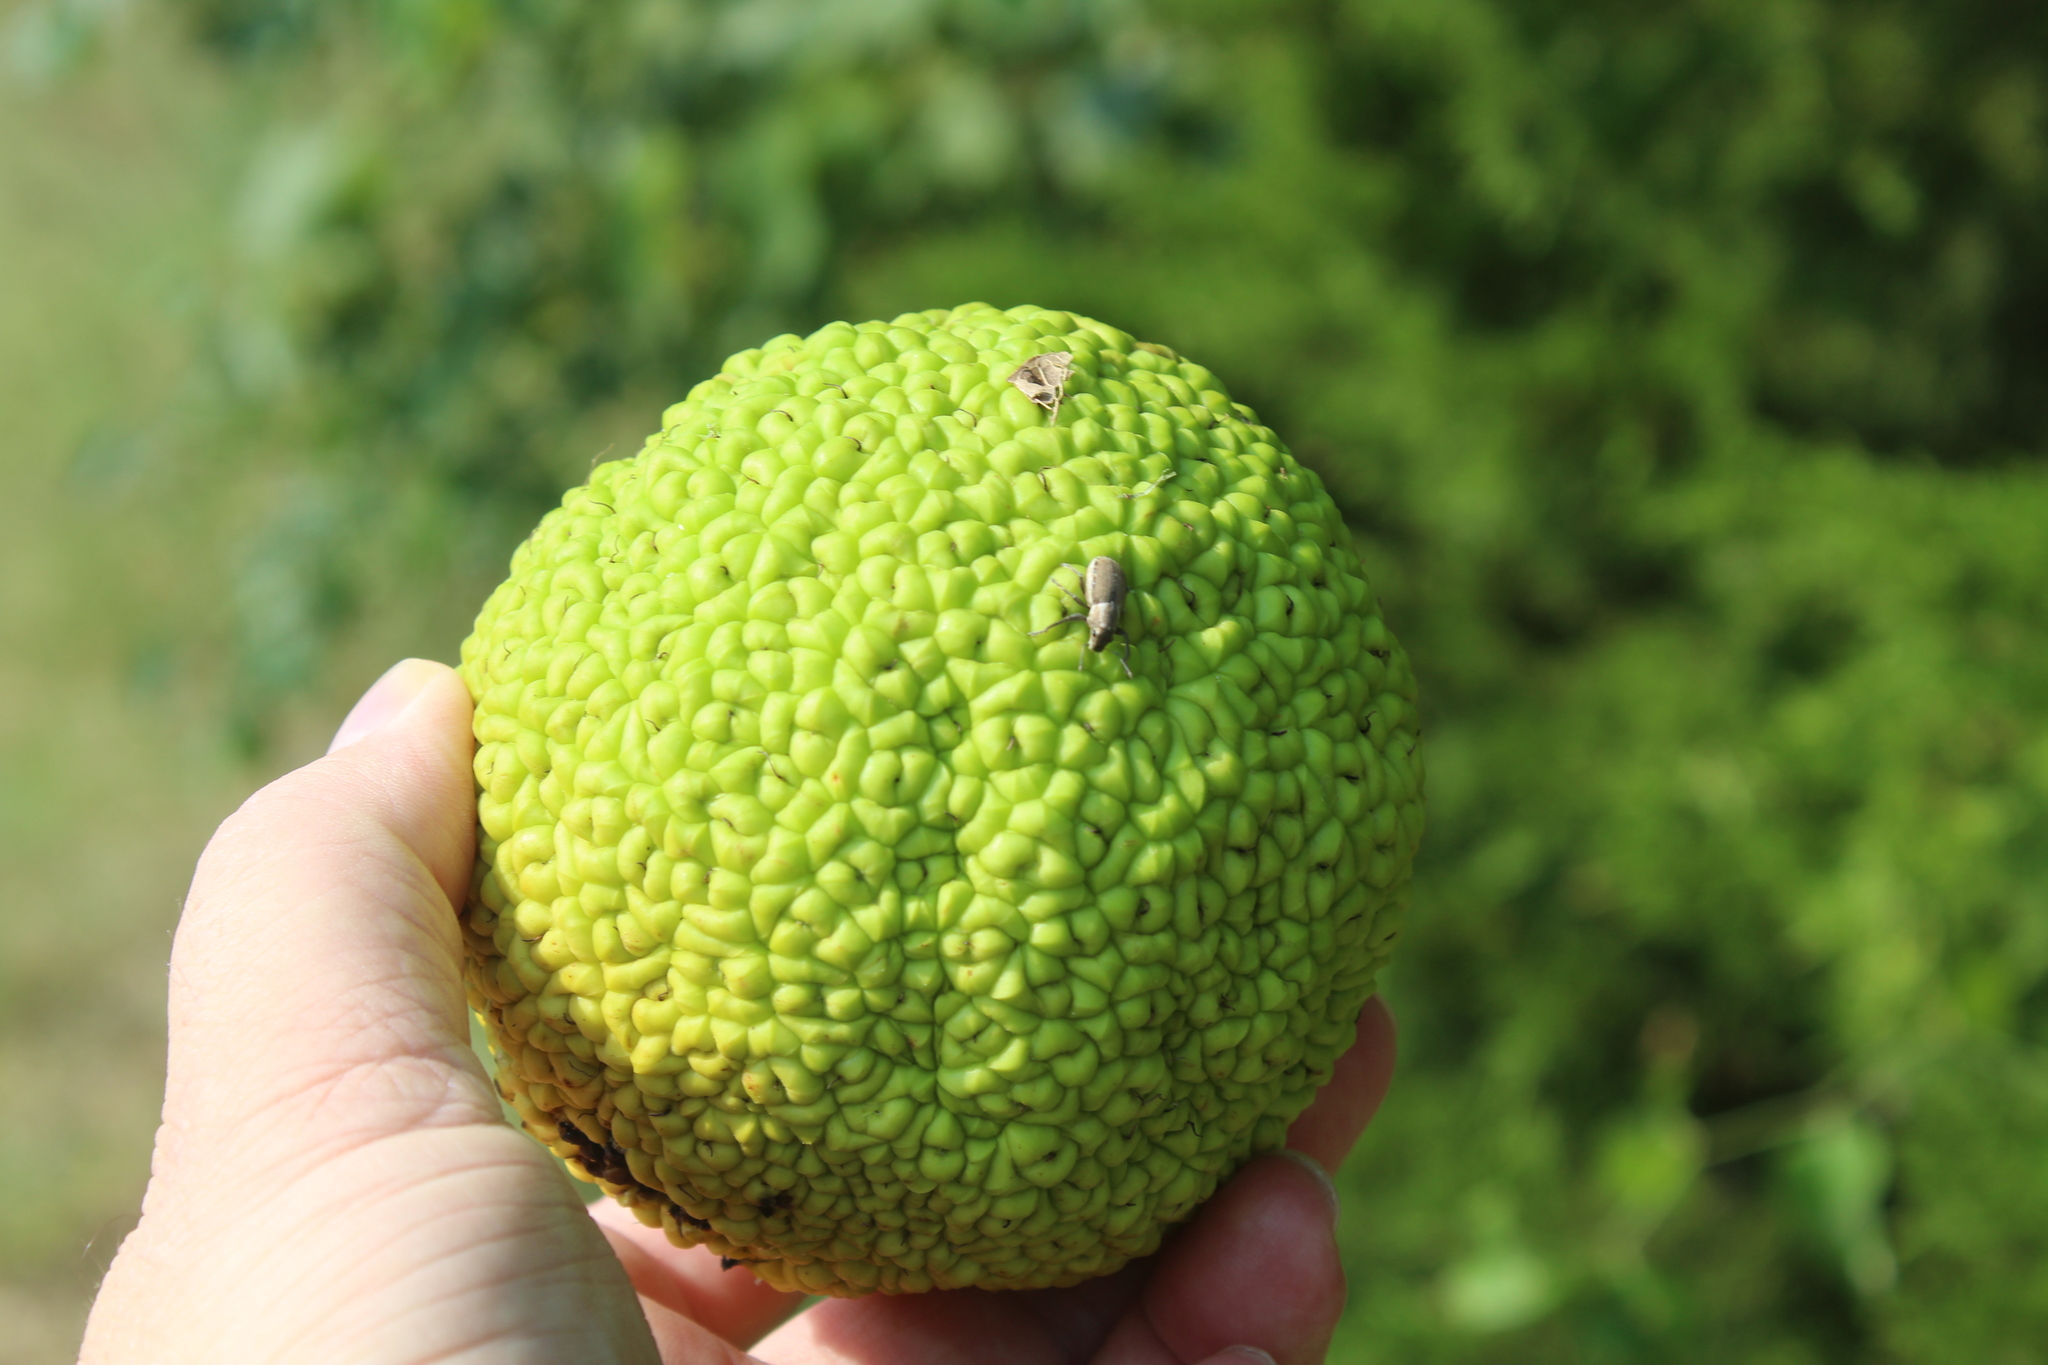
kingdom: Plantae
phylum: Tracheophyta
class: Magnoliopsida
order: Rosales
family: Moraceae
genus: Maclura
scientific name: Maclura pomifera
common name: Osage-orange
